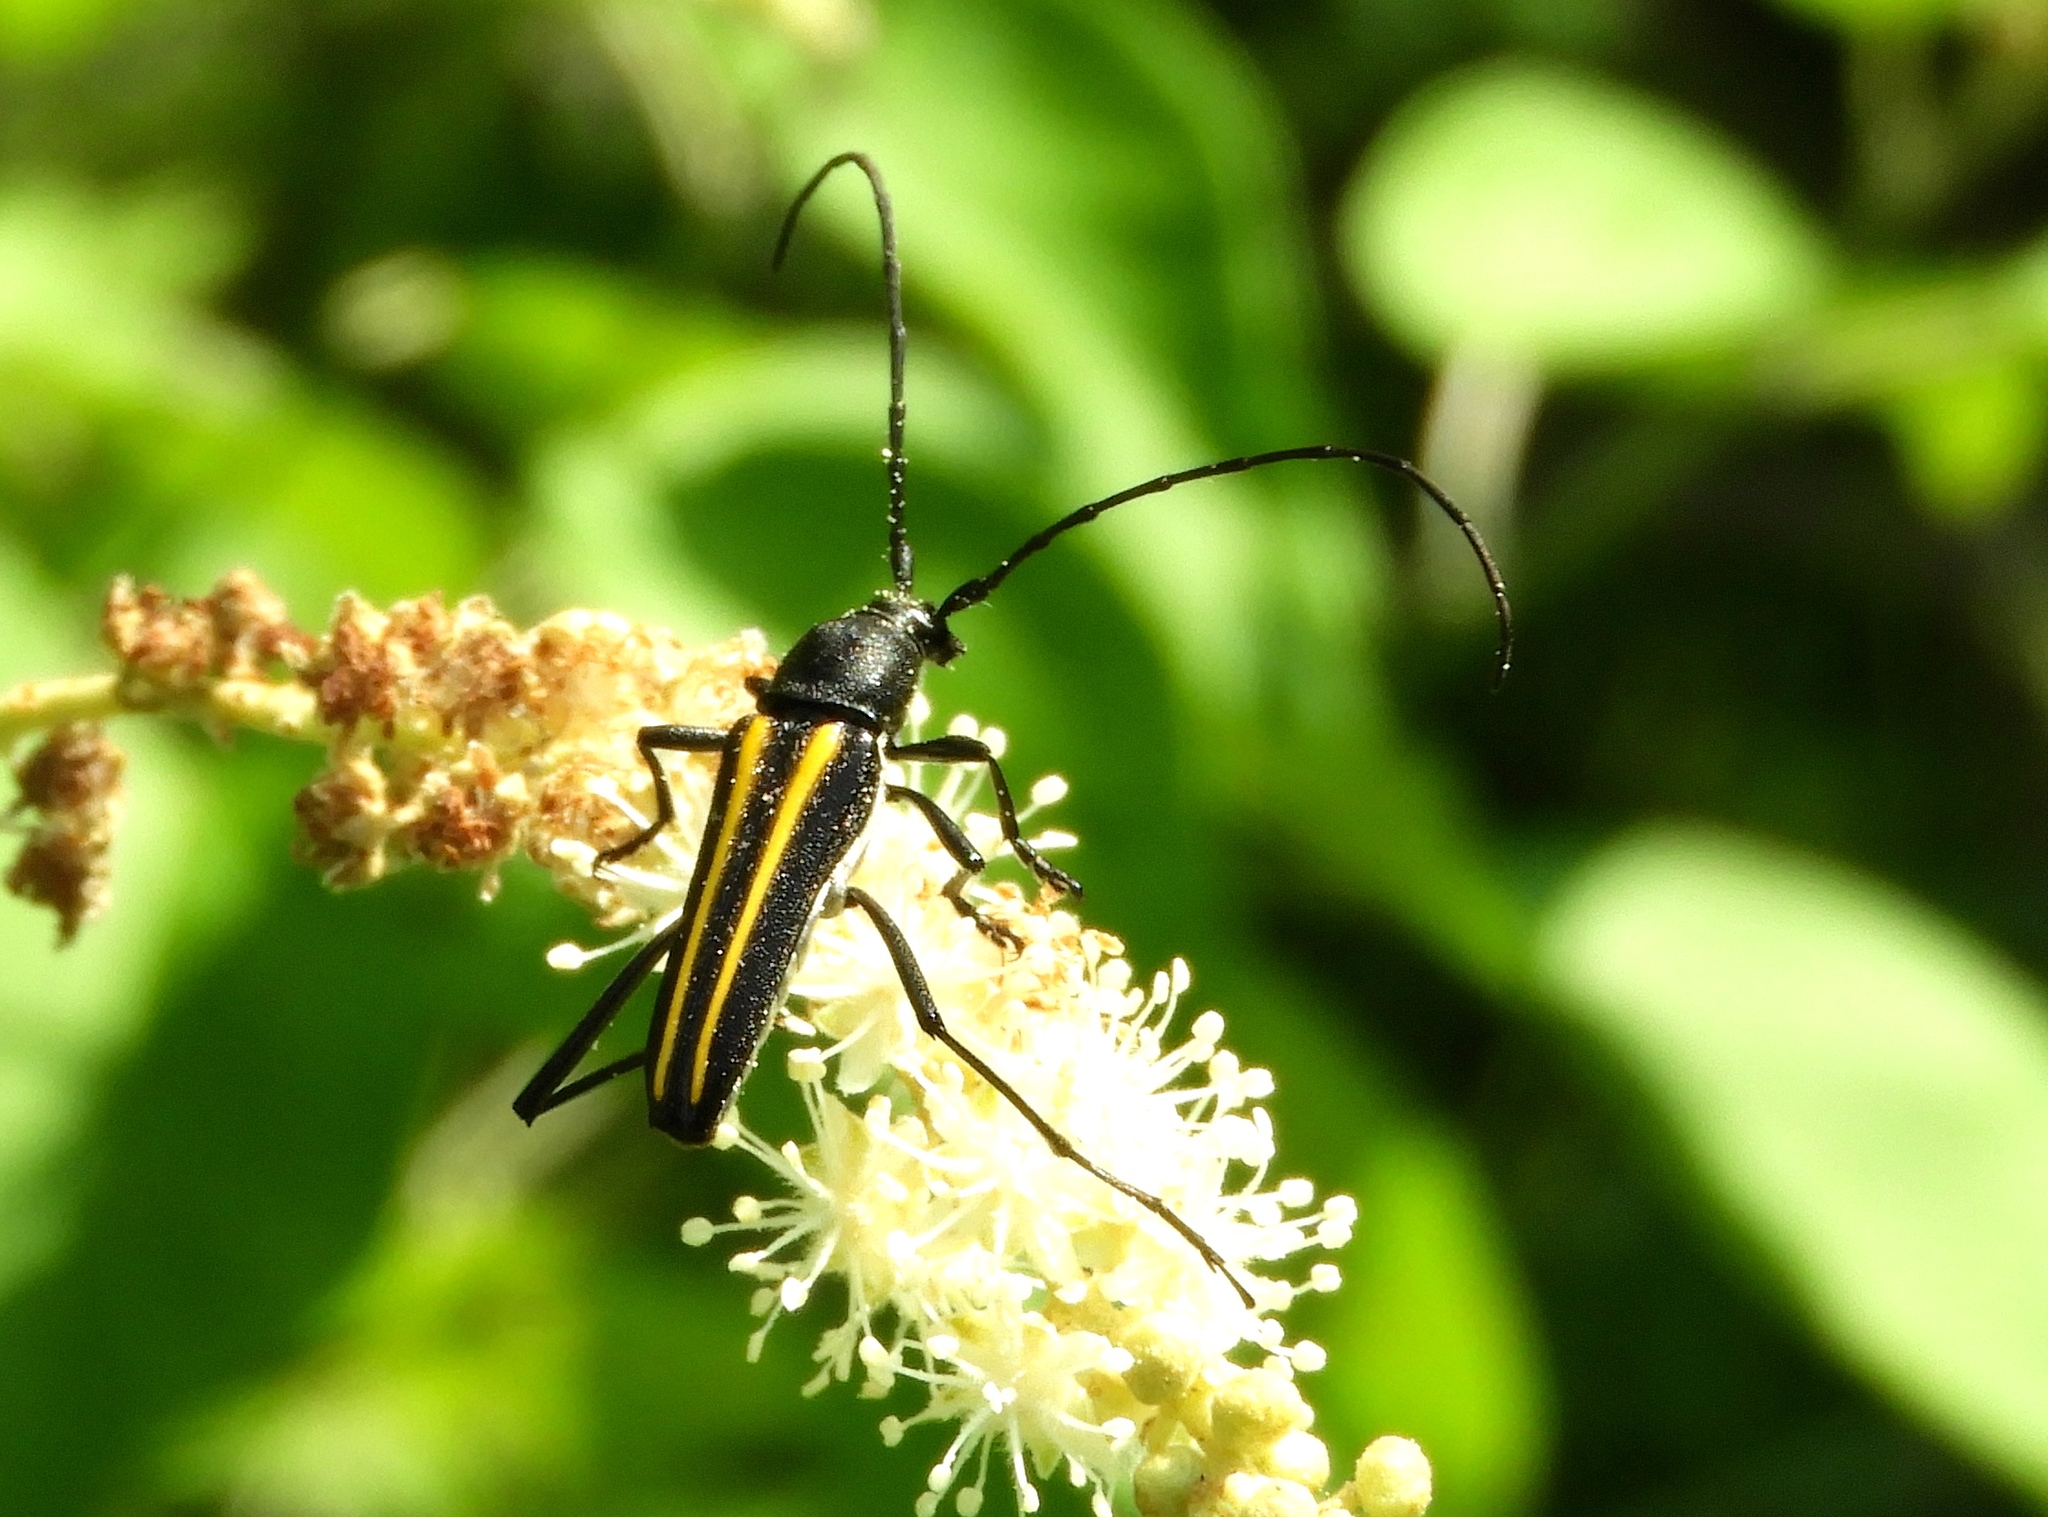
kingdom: Animalia
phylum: Arthropoda
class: Insecta
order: Coleoptera
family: Cerambycidae
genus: Lophalia
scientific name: Lophalia prolata
